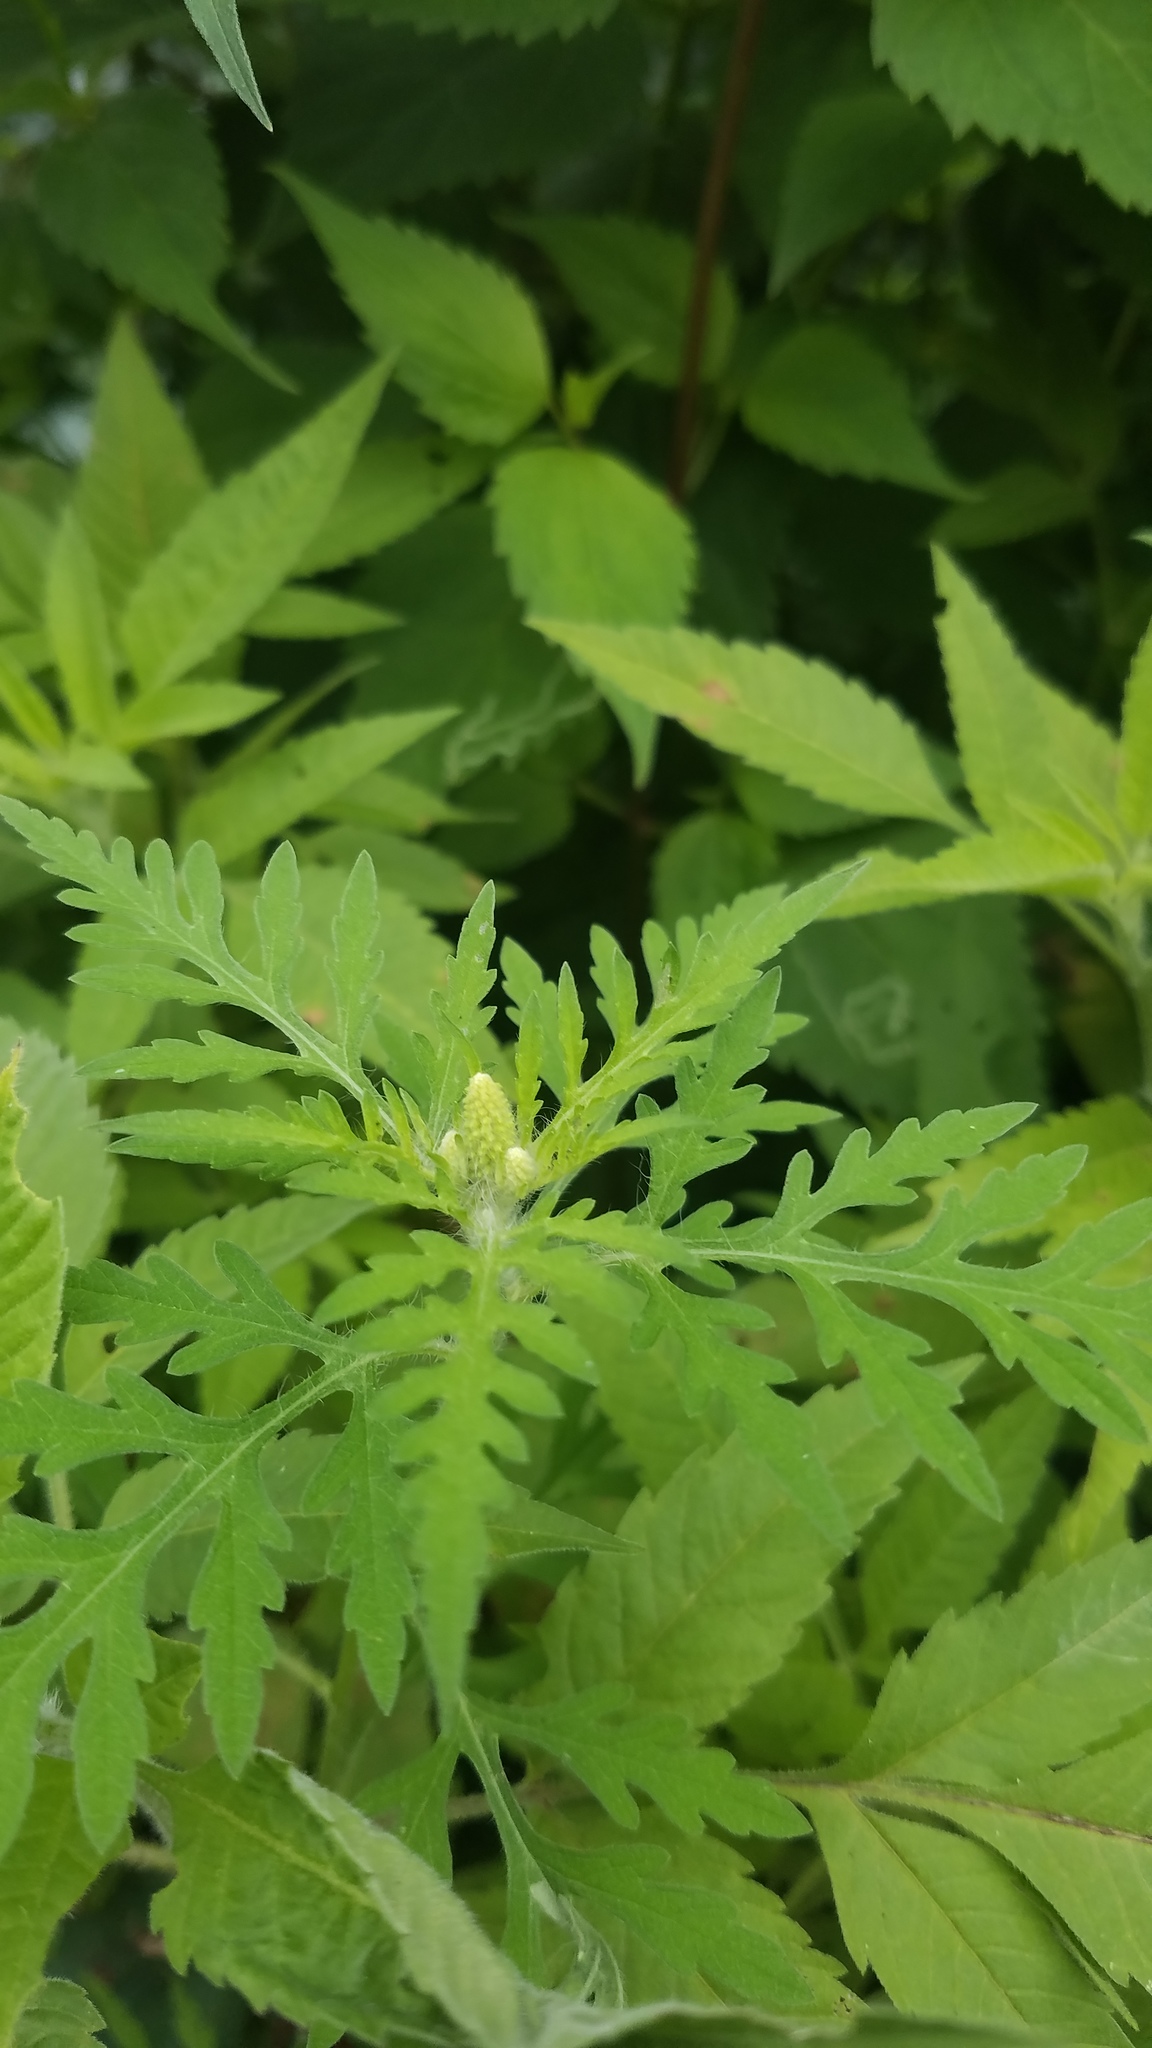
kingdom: Plantae
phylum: Tracheophyta
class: Magnoliopsida
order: Asterales
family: Asteraceae
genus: Ambrosia
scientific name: Ambrosia artemisiifolia
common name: Annual ragweed
